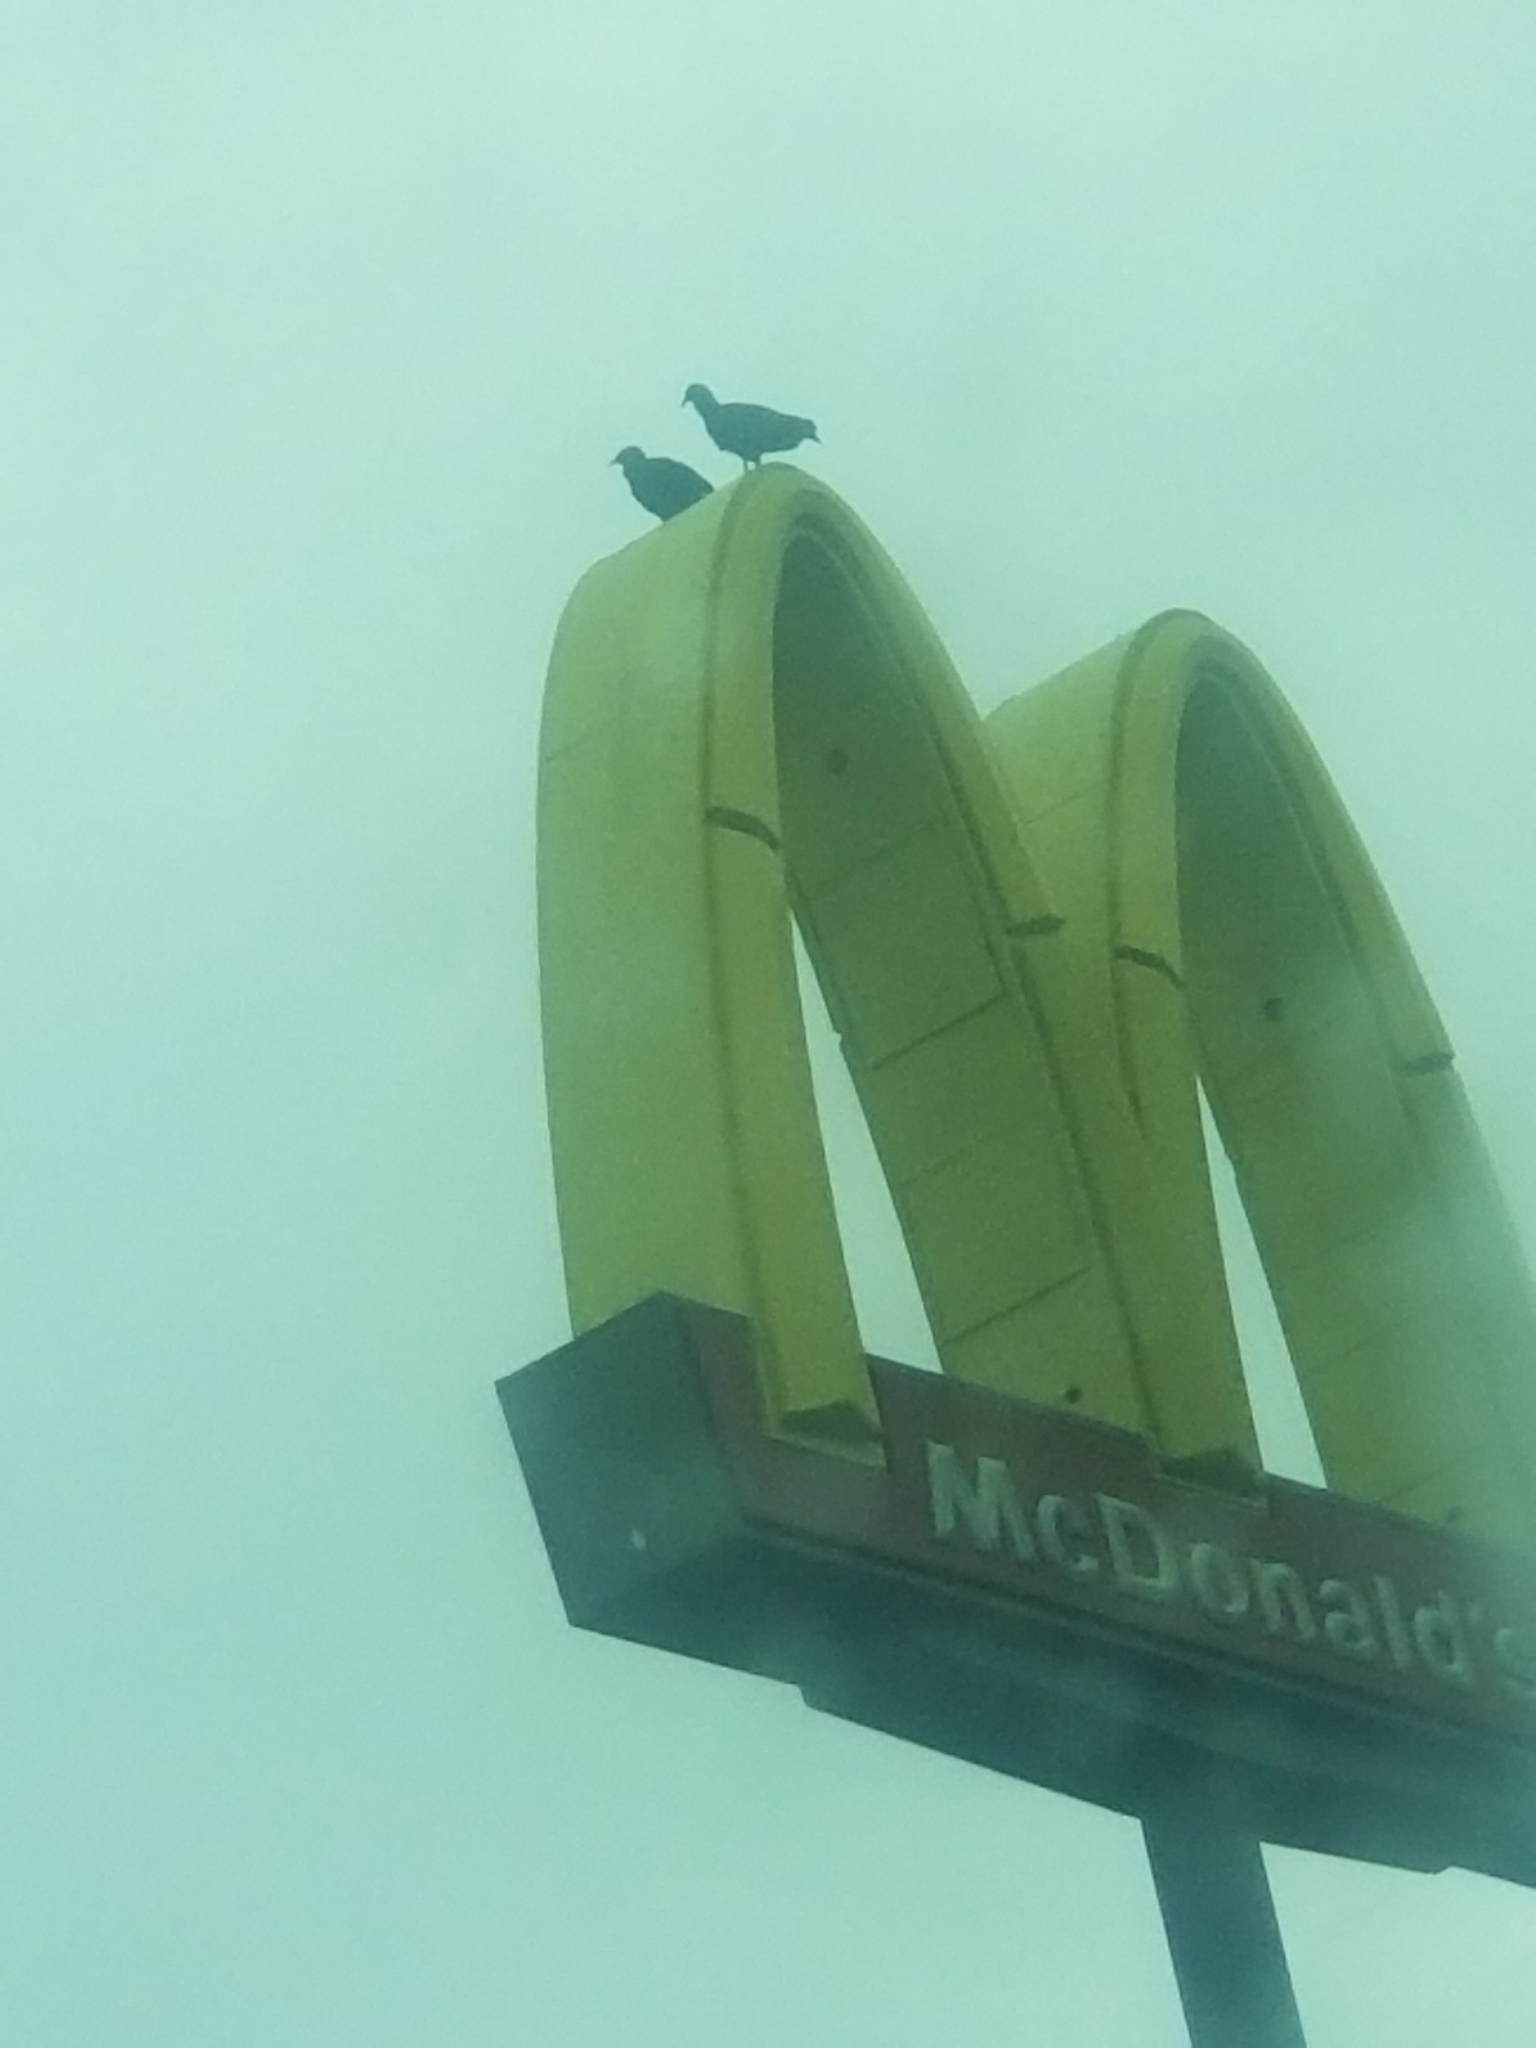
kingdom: Animalia
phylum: Chordata
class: Aves
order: Accipitriformes
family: Cathartidae
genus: Coragyps
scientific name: Coragyps atratus
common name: Black vulture
